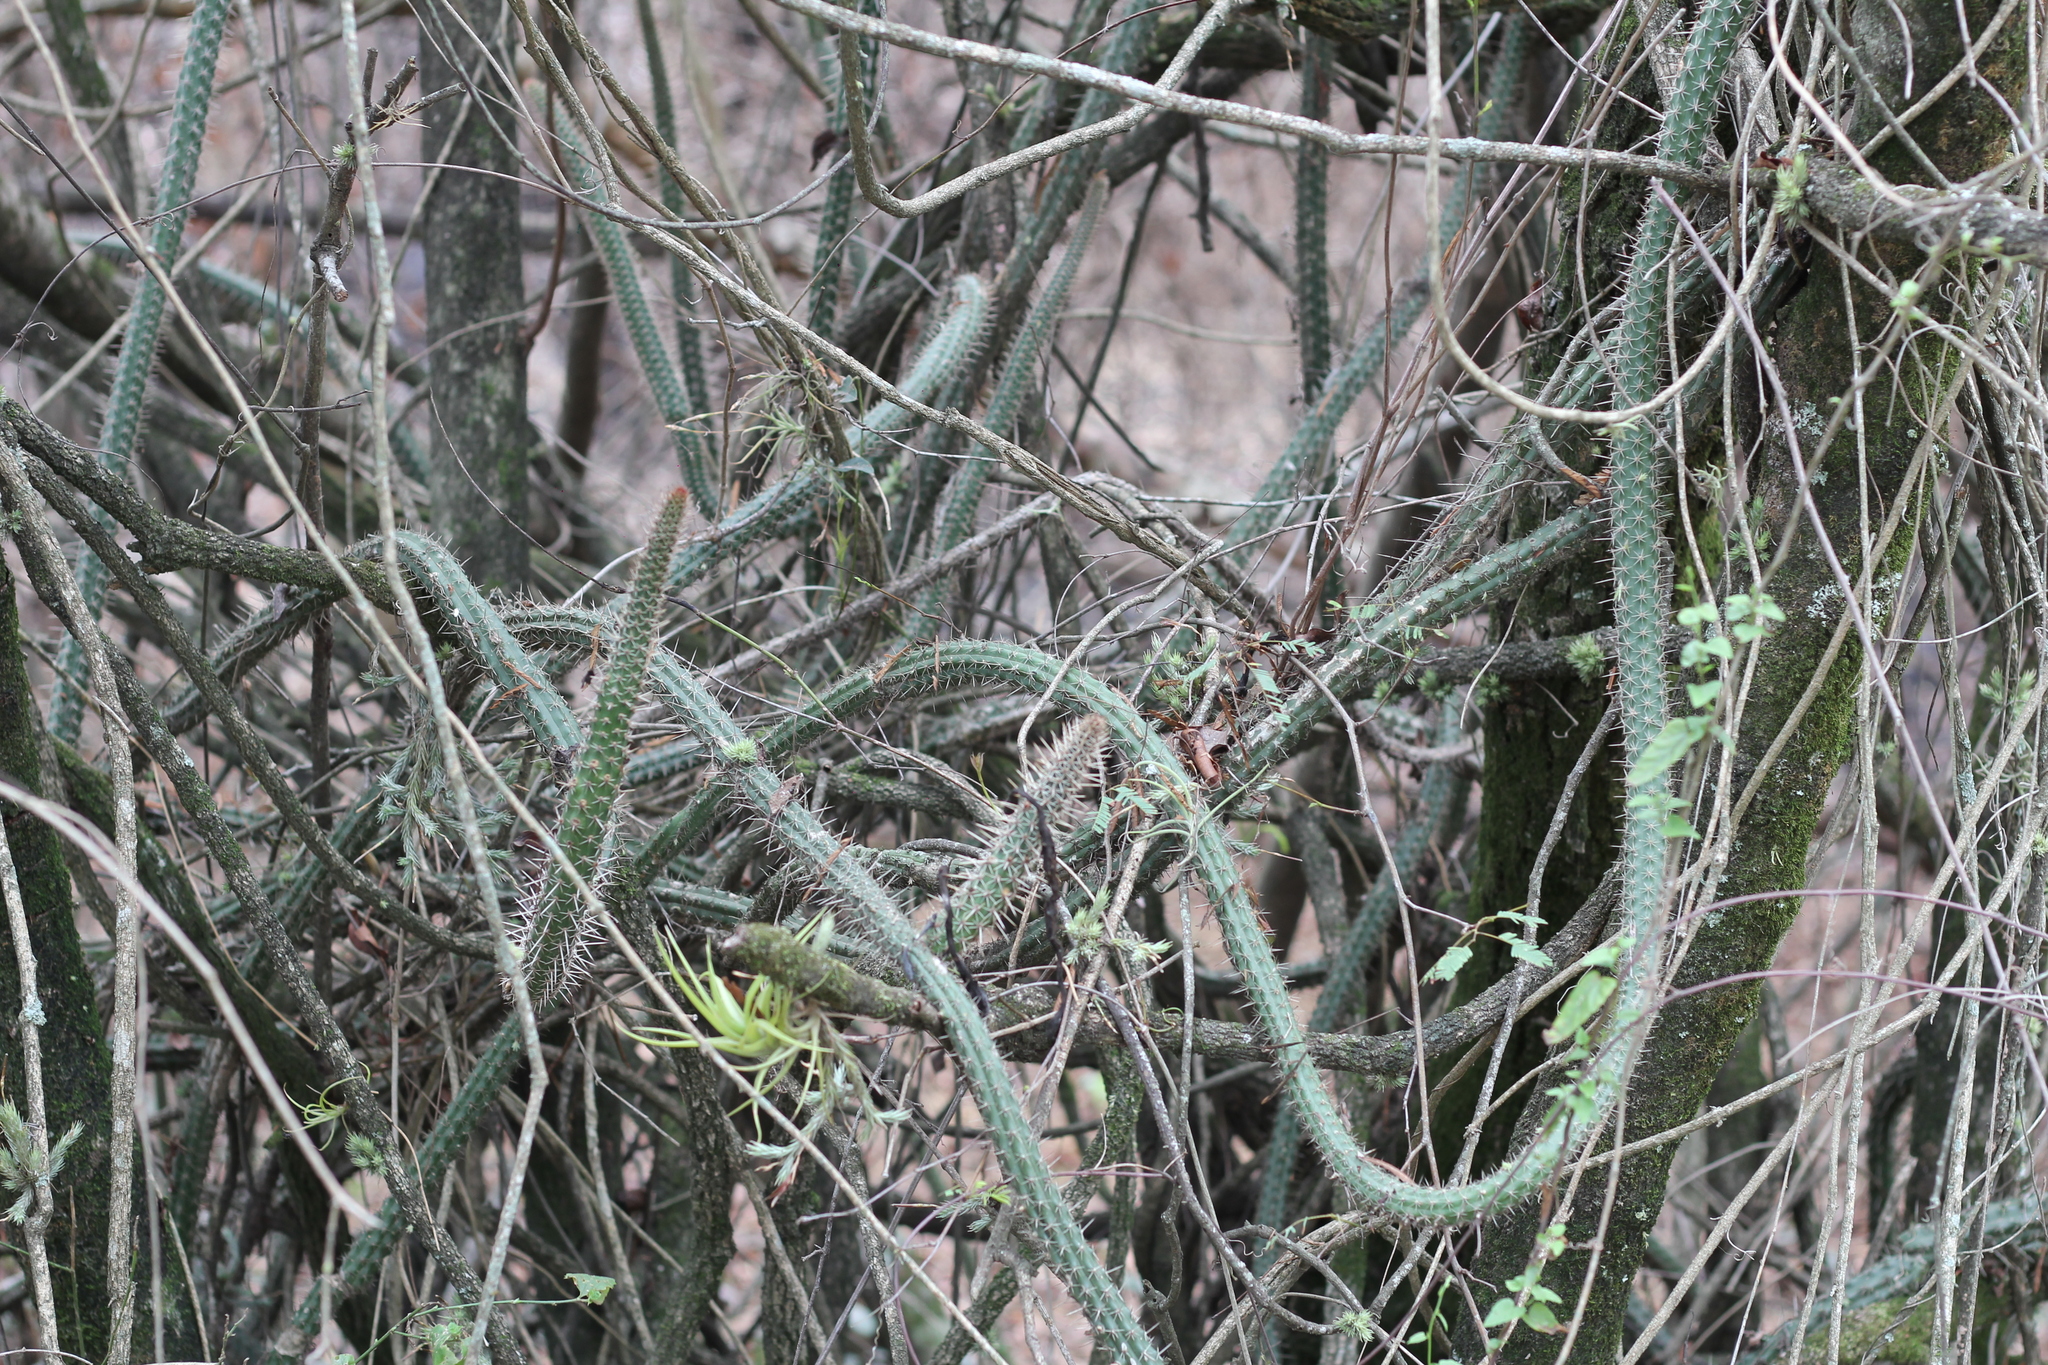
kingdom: Plantae
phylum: Tracheophyta
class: Magnoliopsida
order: Caryophyllales
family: Cactaceae
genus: Praecereus
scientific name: Praecereus euchlorus
